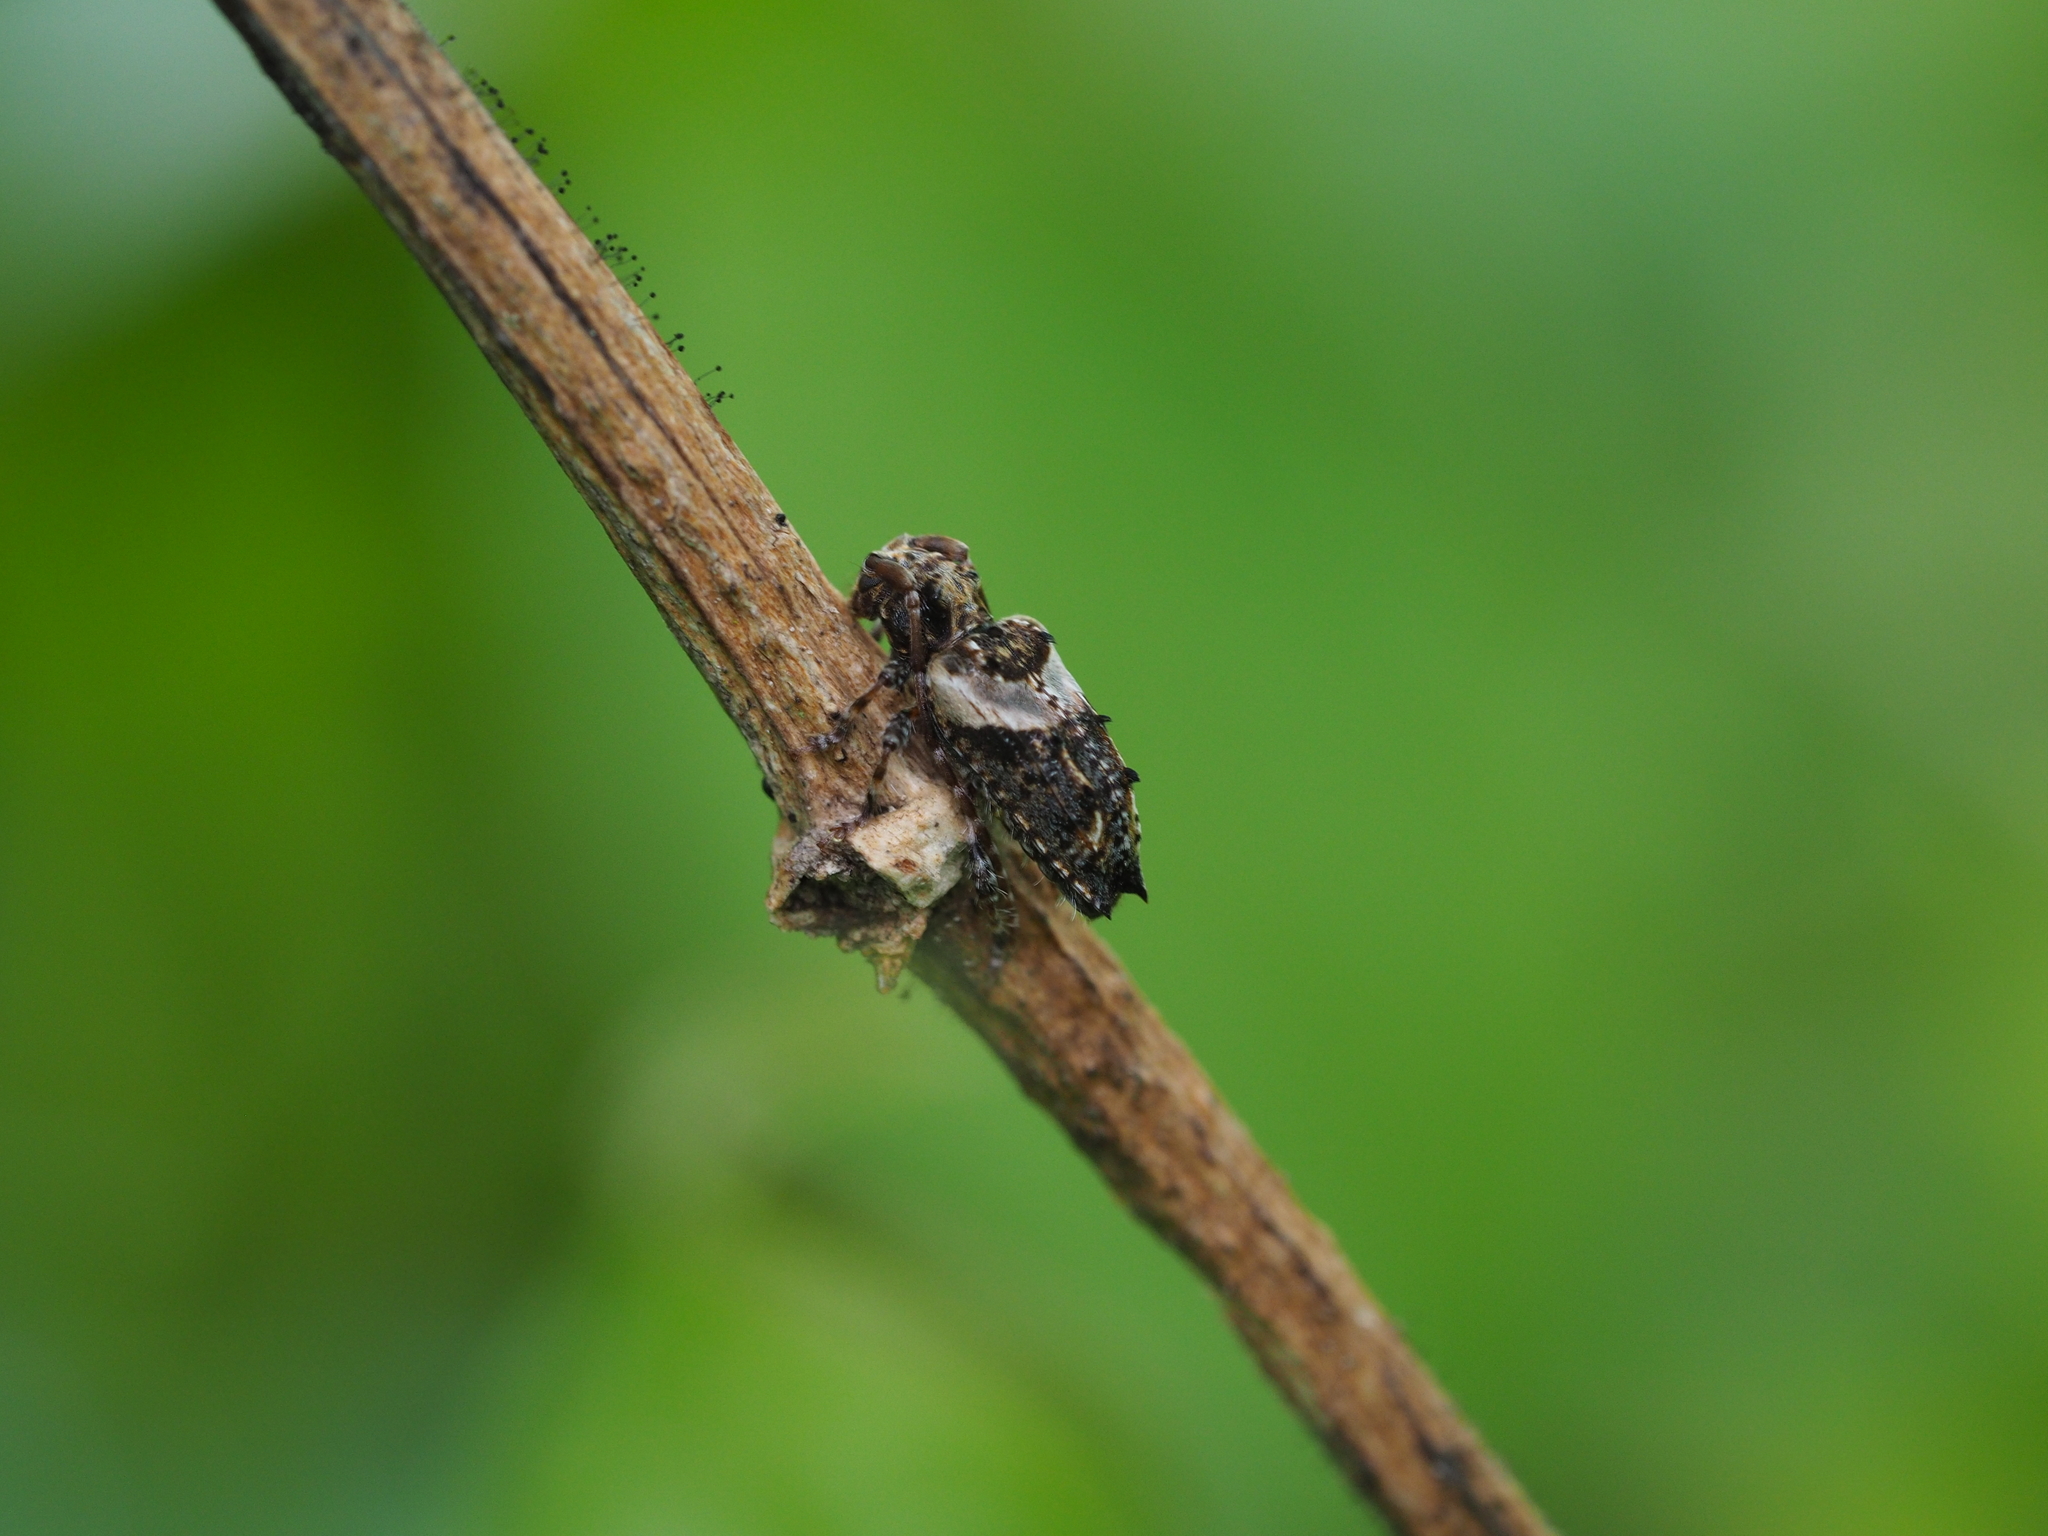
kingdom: Animalia
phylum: Arthropoda
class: Insecta
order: Coleoptera
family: Cerambycidae
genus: Pogonocherus
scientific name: Pogonocherus hispidus
